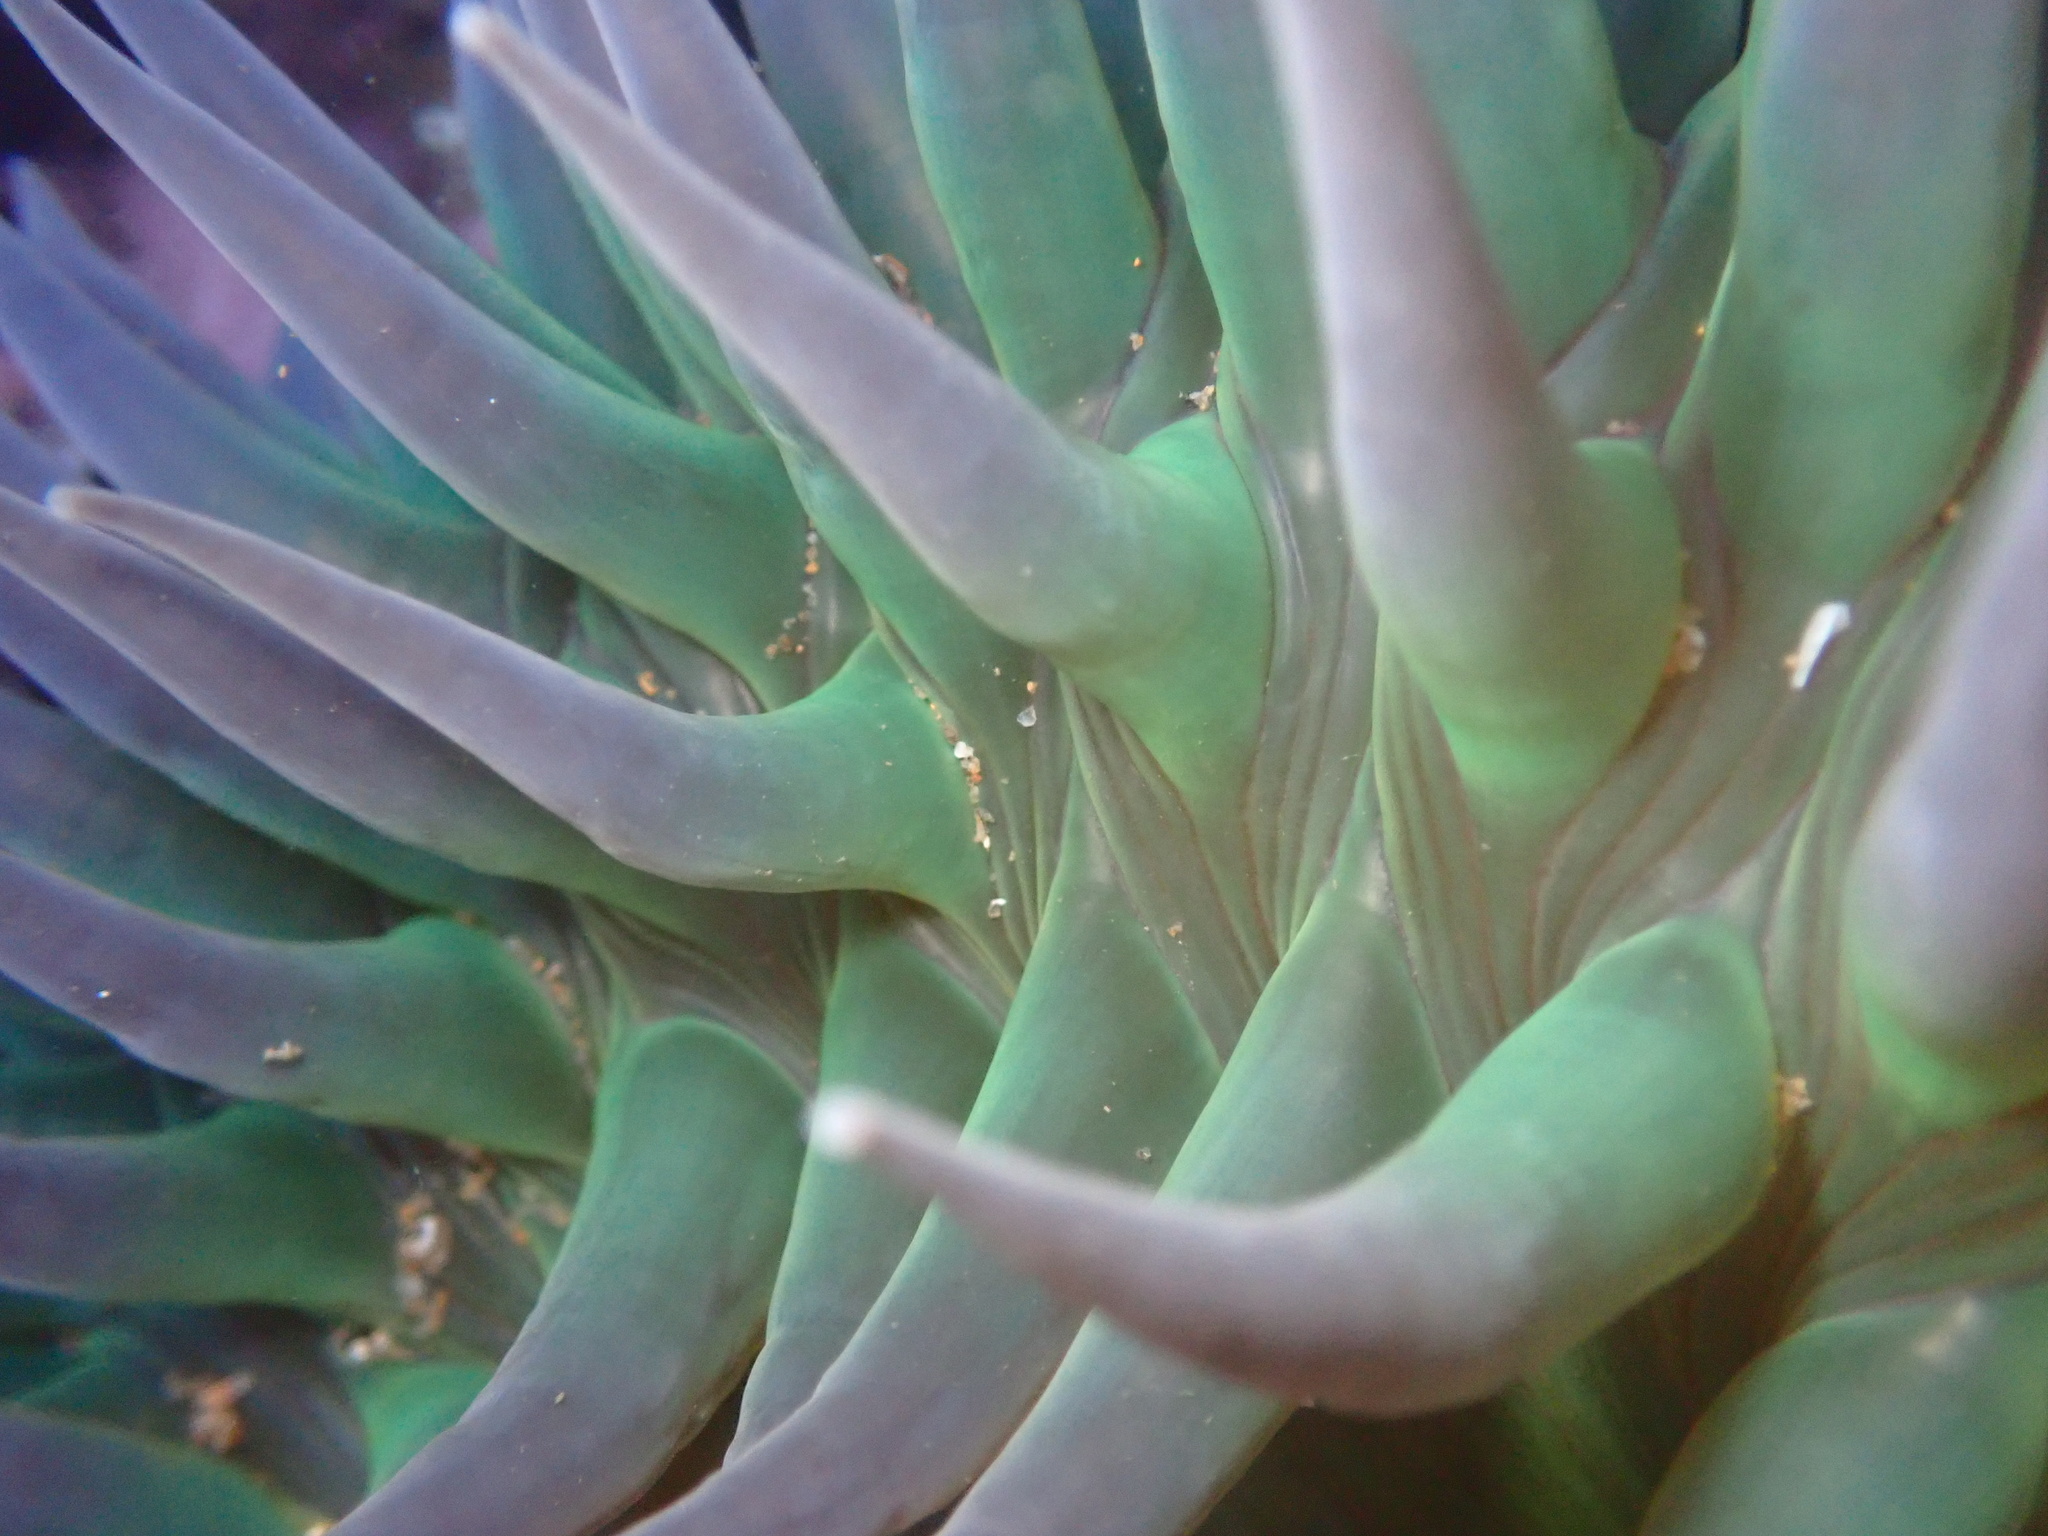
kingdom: Animalia
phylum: Cnidaria
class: Anthozoa
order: Actiniaria
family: Actiniidae
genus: Anthopleura
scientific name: Anthopleura xanthogrammica
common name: Giant green anemone
